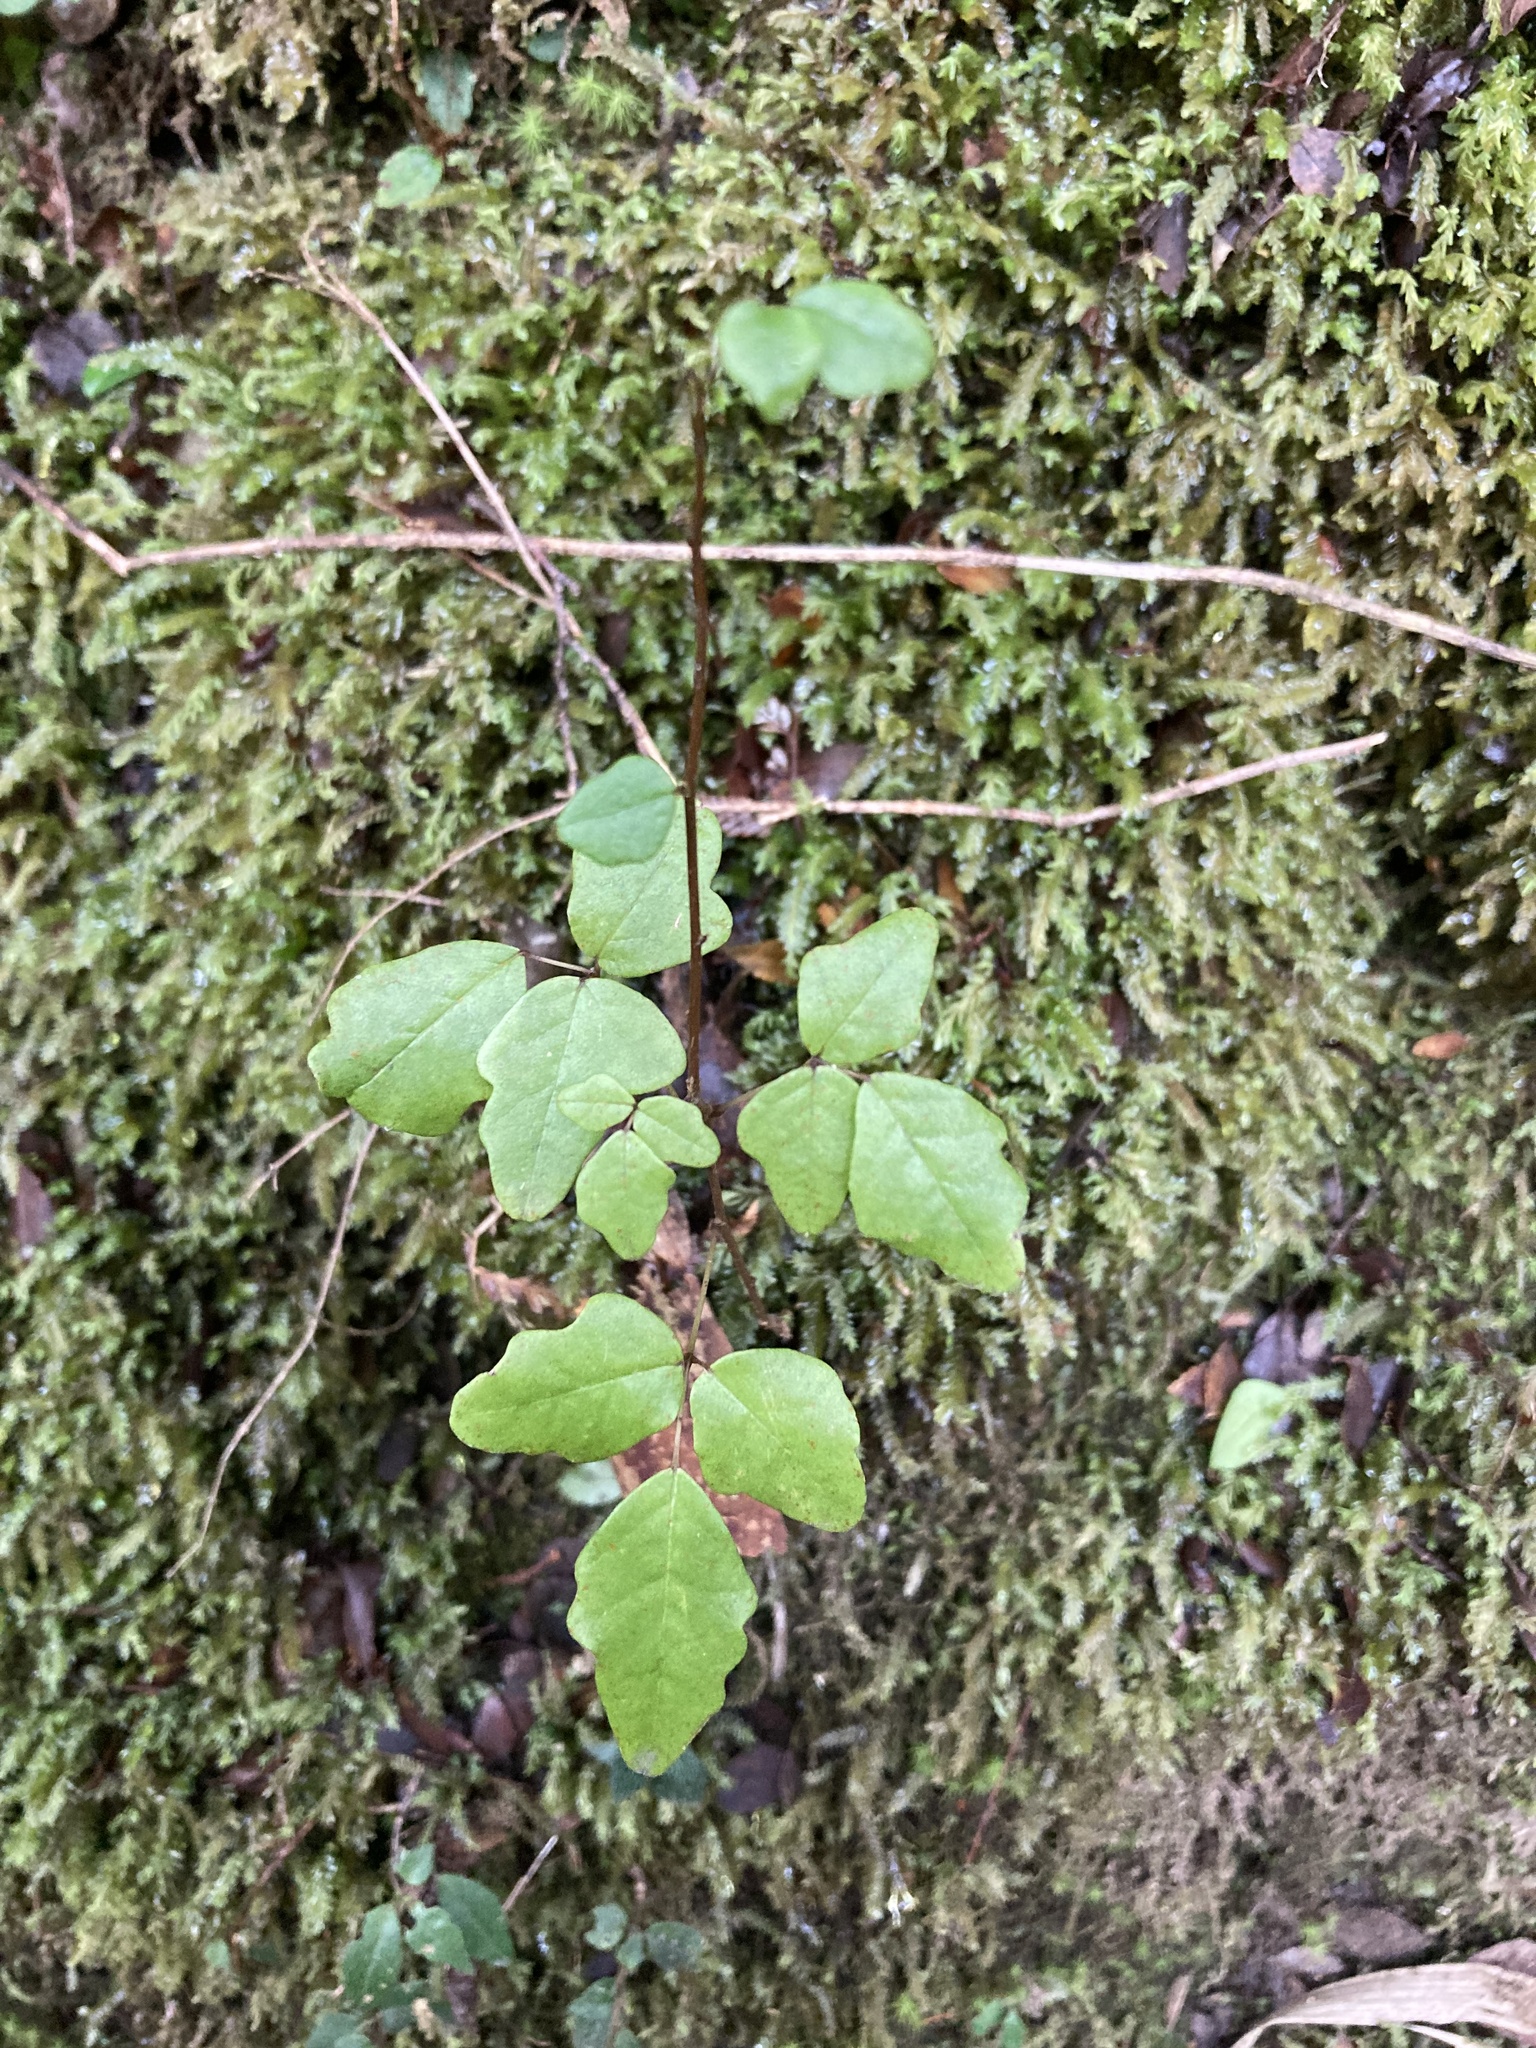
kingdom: Plantae
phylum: Tracheophyta
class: Magnoliopsida
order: Ranunculales
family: Lardizabalaceae
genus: Boquila
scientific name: Boquila trifoliolata
